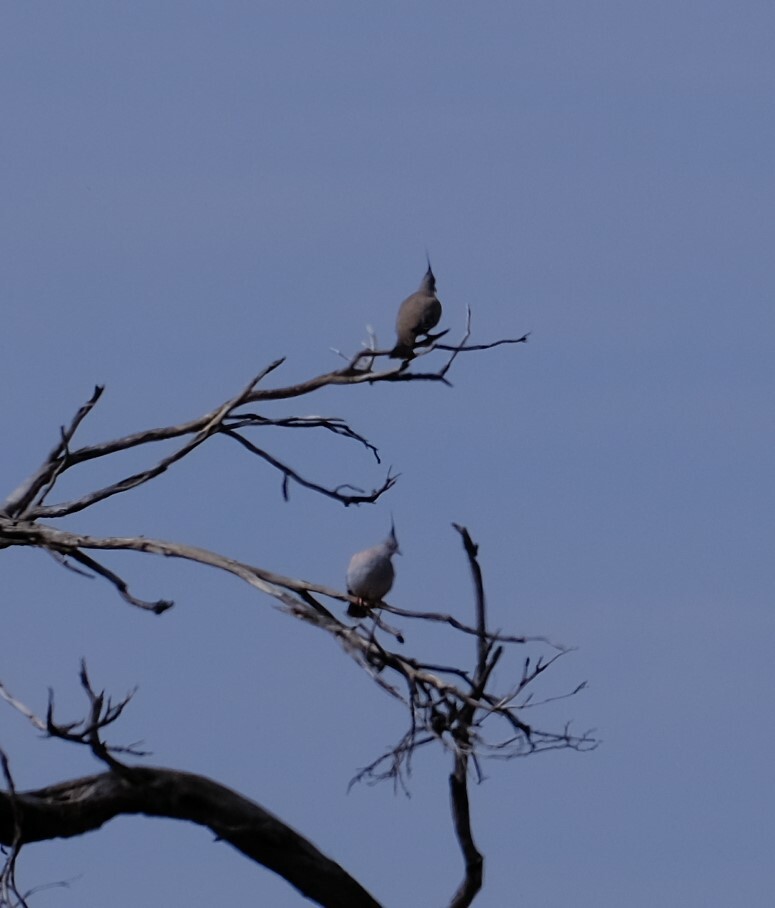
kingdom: Animalia
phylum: Chordata
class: Aves
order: Columbiformes
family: Columbidae
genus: Ocyphaps
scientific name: Ocyphaps lophotes
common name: Crested pigeon
